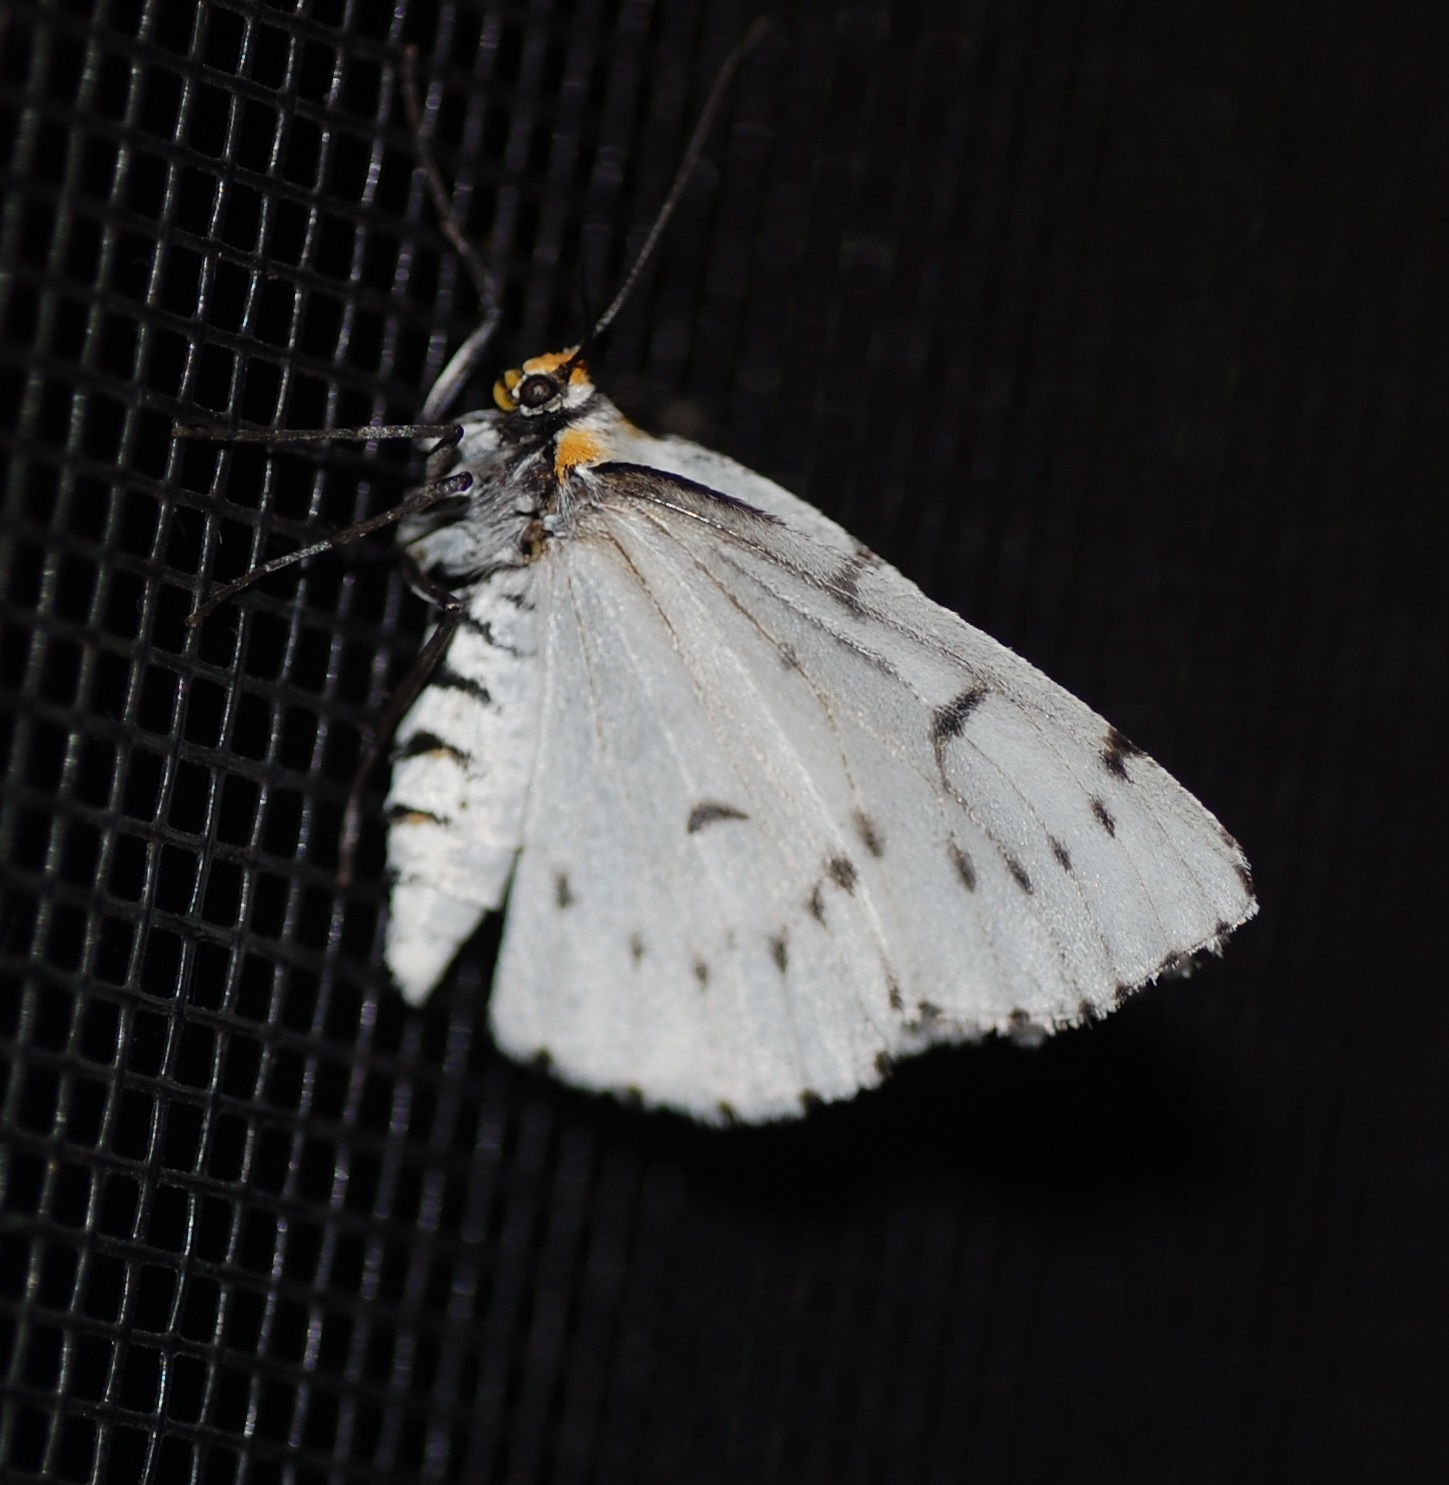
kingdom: Animalia
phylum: Arthropoda
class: Insecta
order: Lepidoptera
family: Geometridae
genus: Cingilia
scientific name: Cingilia catenaria
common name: Chain-dotted geometer
